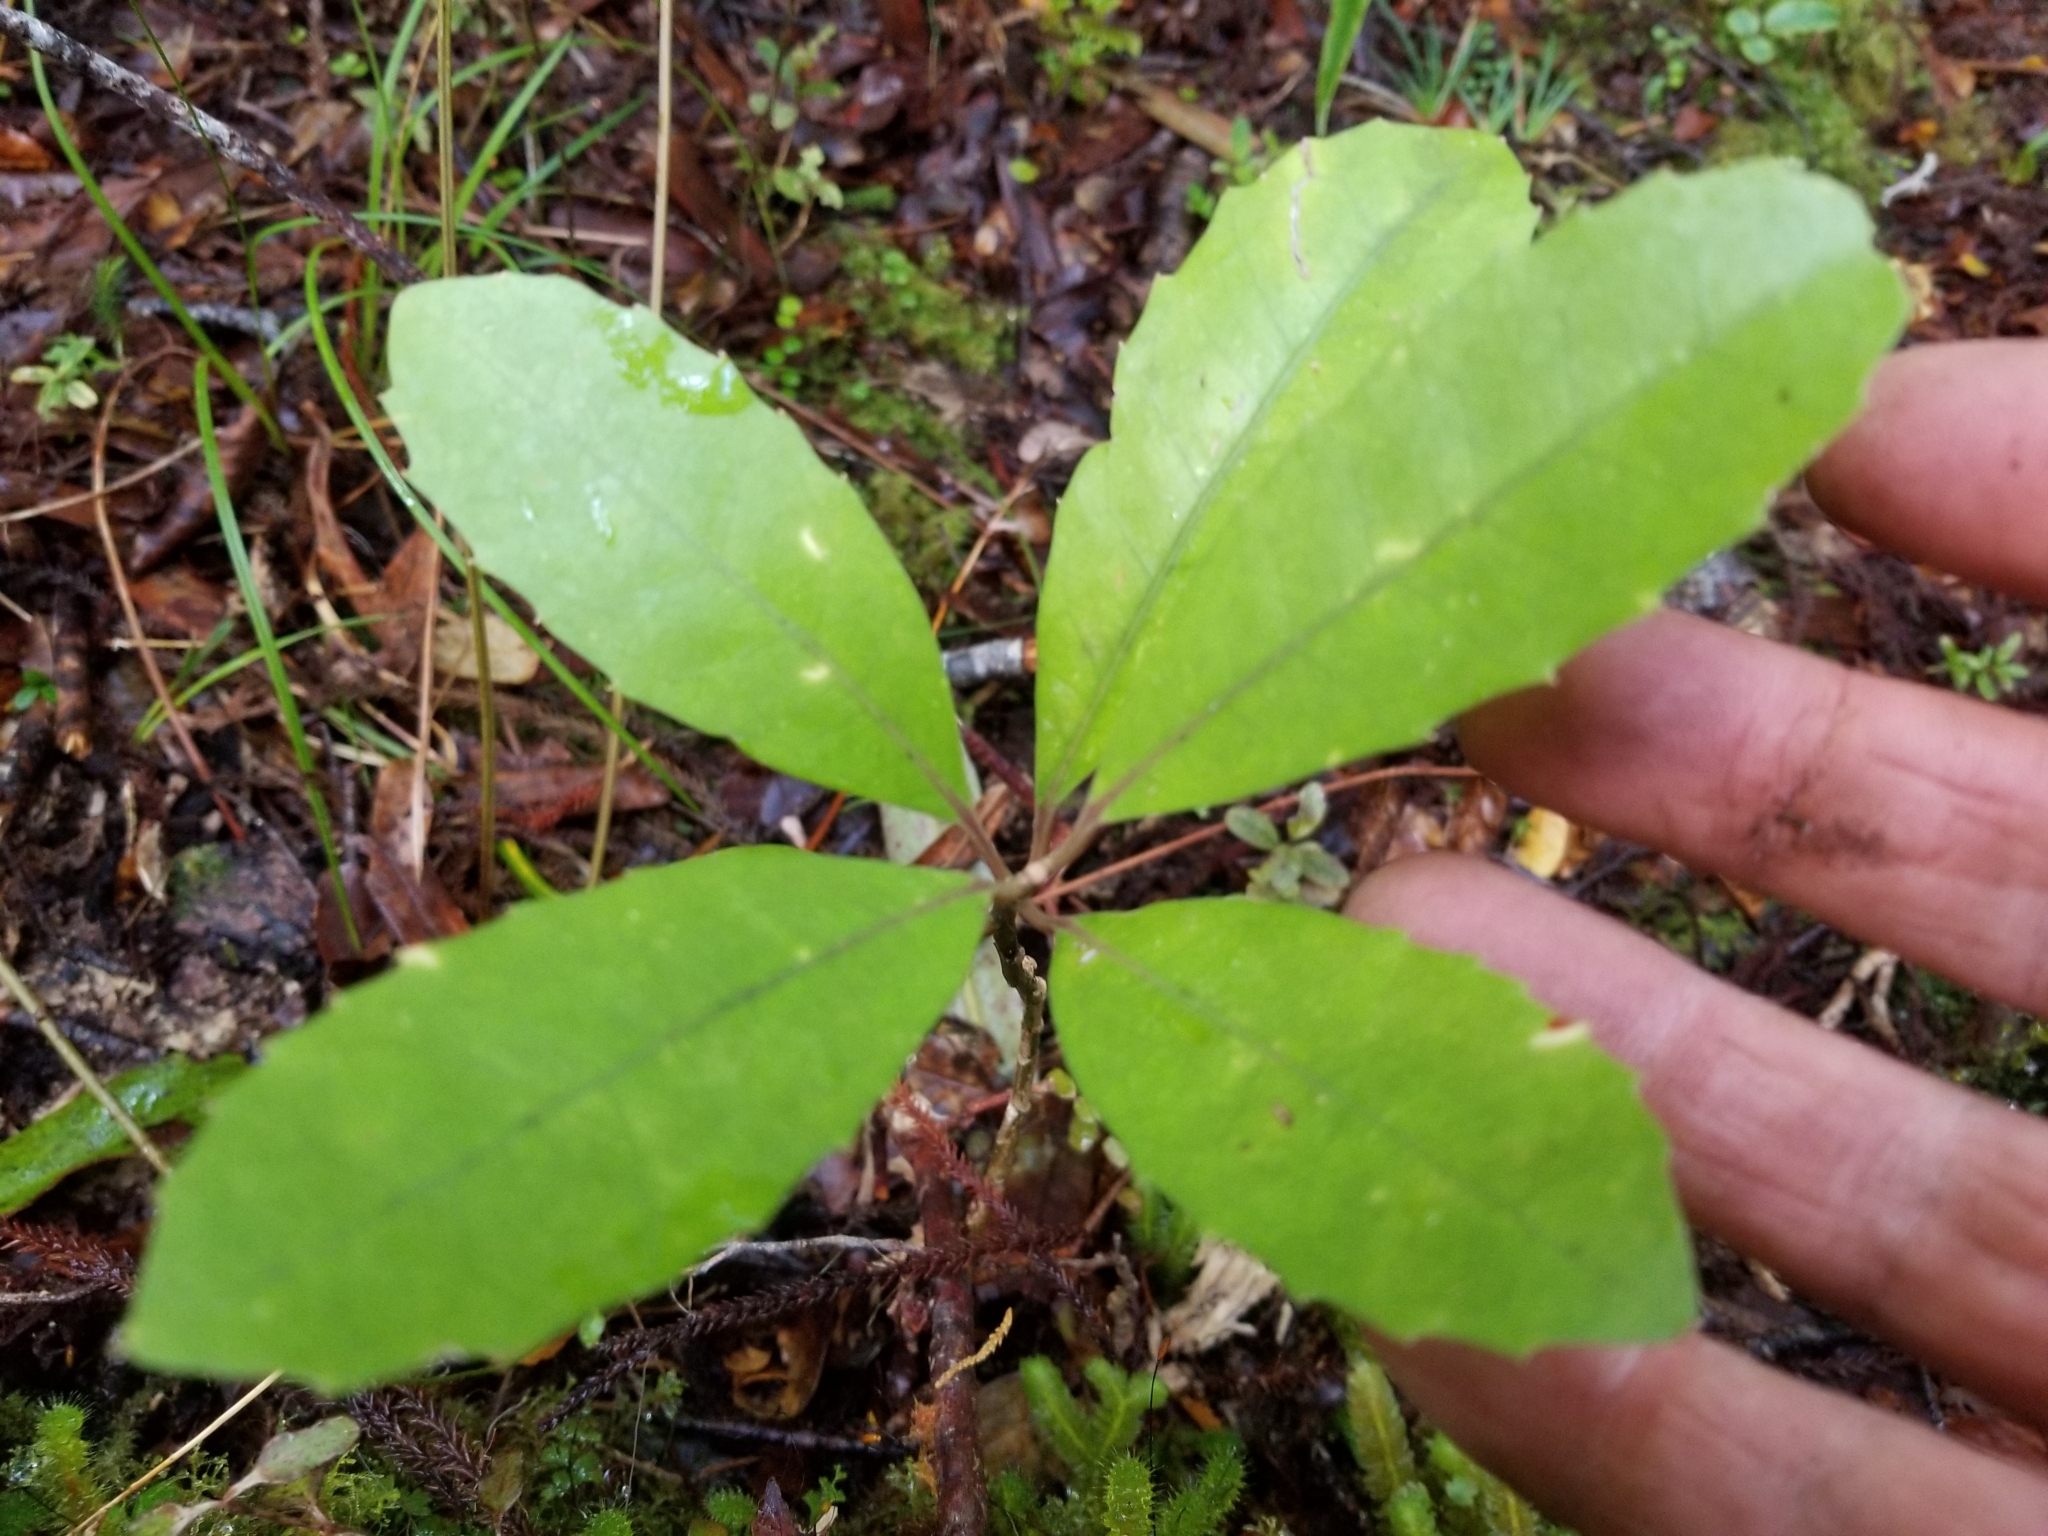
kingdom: Plantae
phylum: Tracheophyta
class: Magnoliopsida
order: Laurales
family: Monimiaceae
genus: Hedycarya
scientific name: Hedycarya arborea
